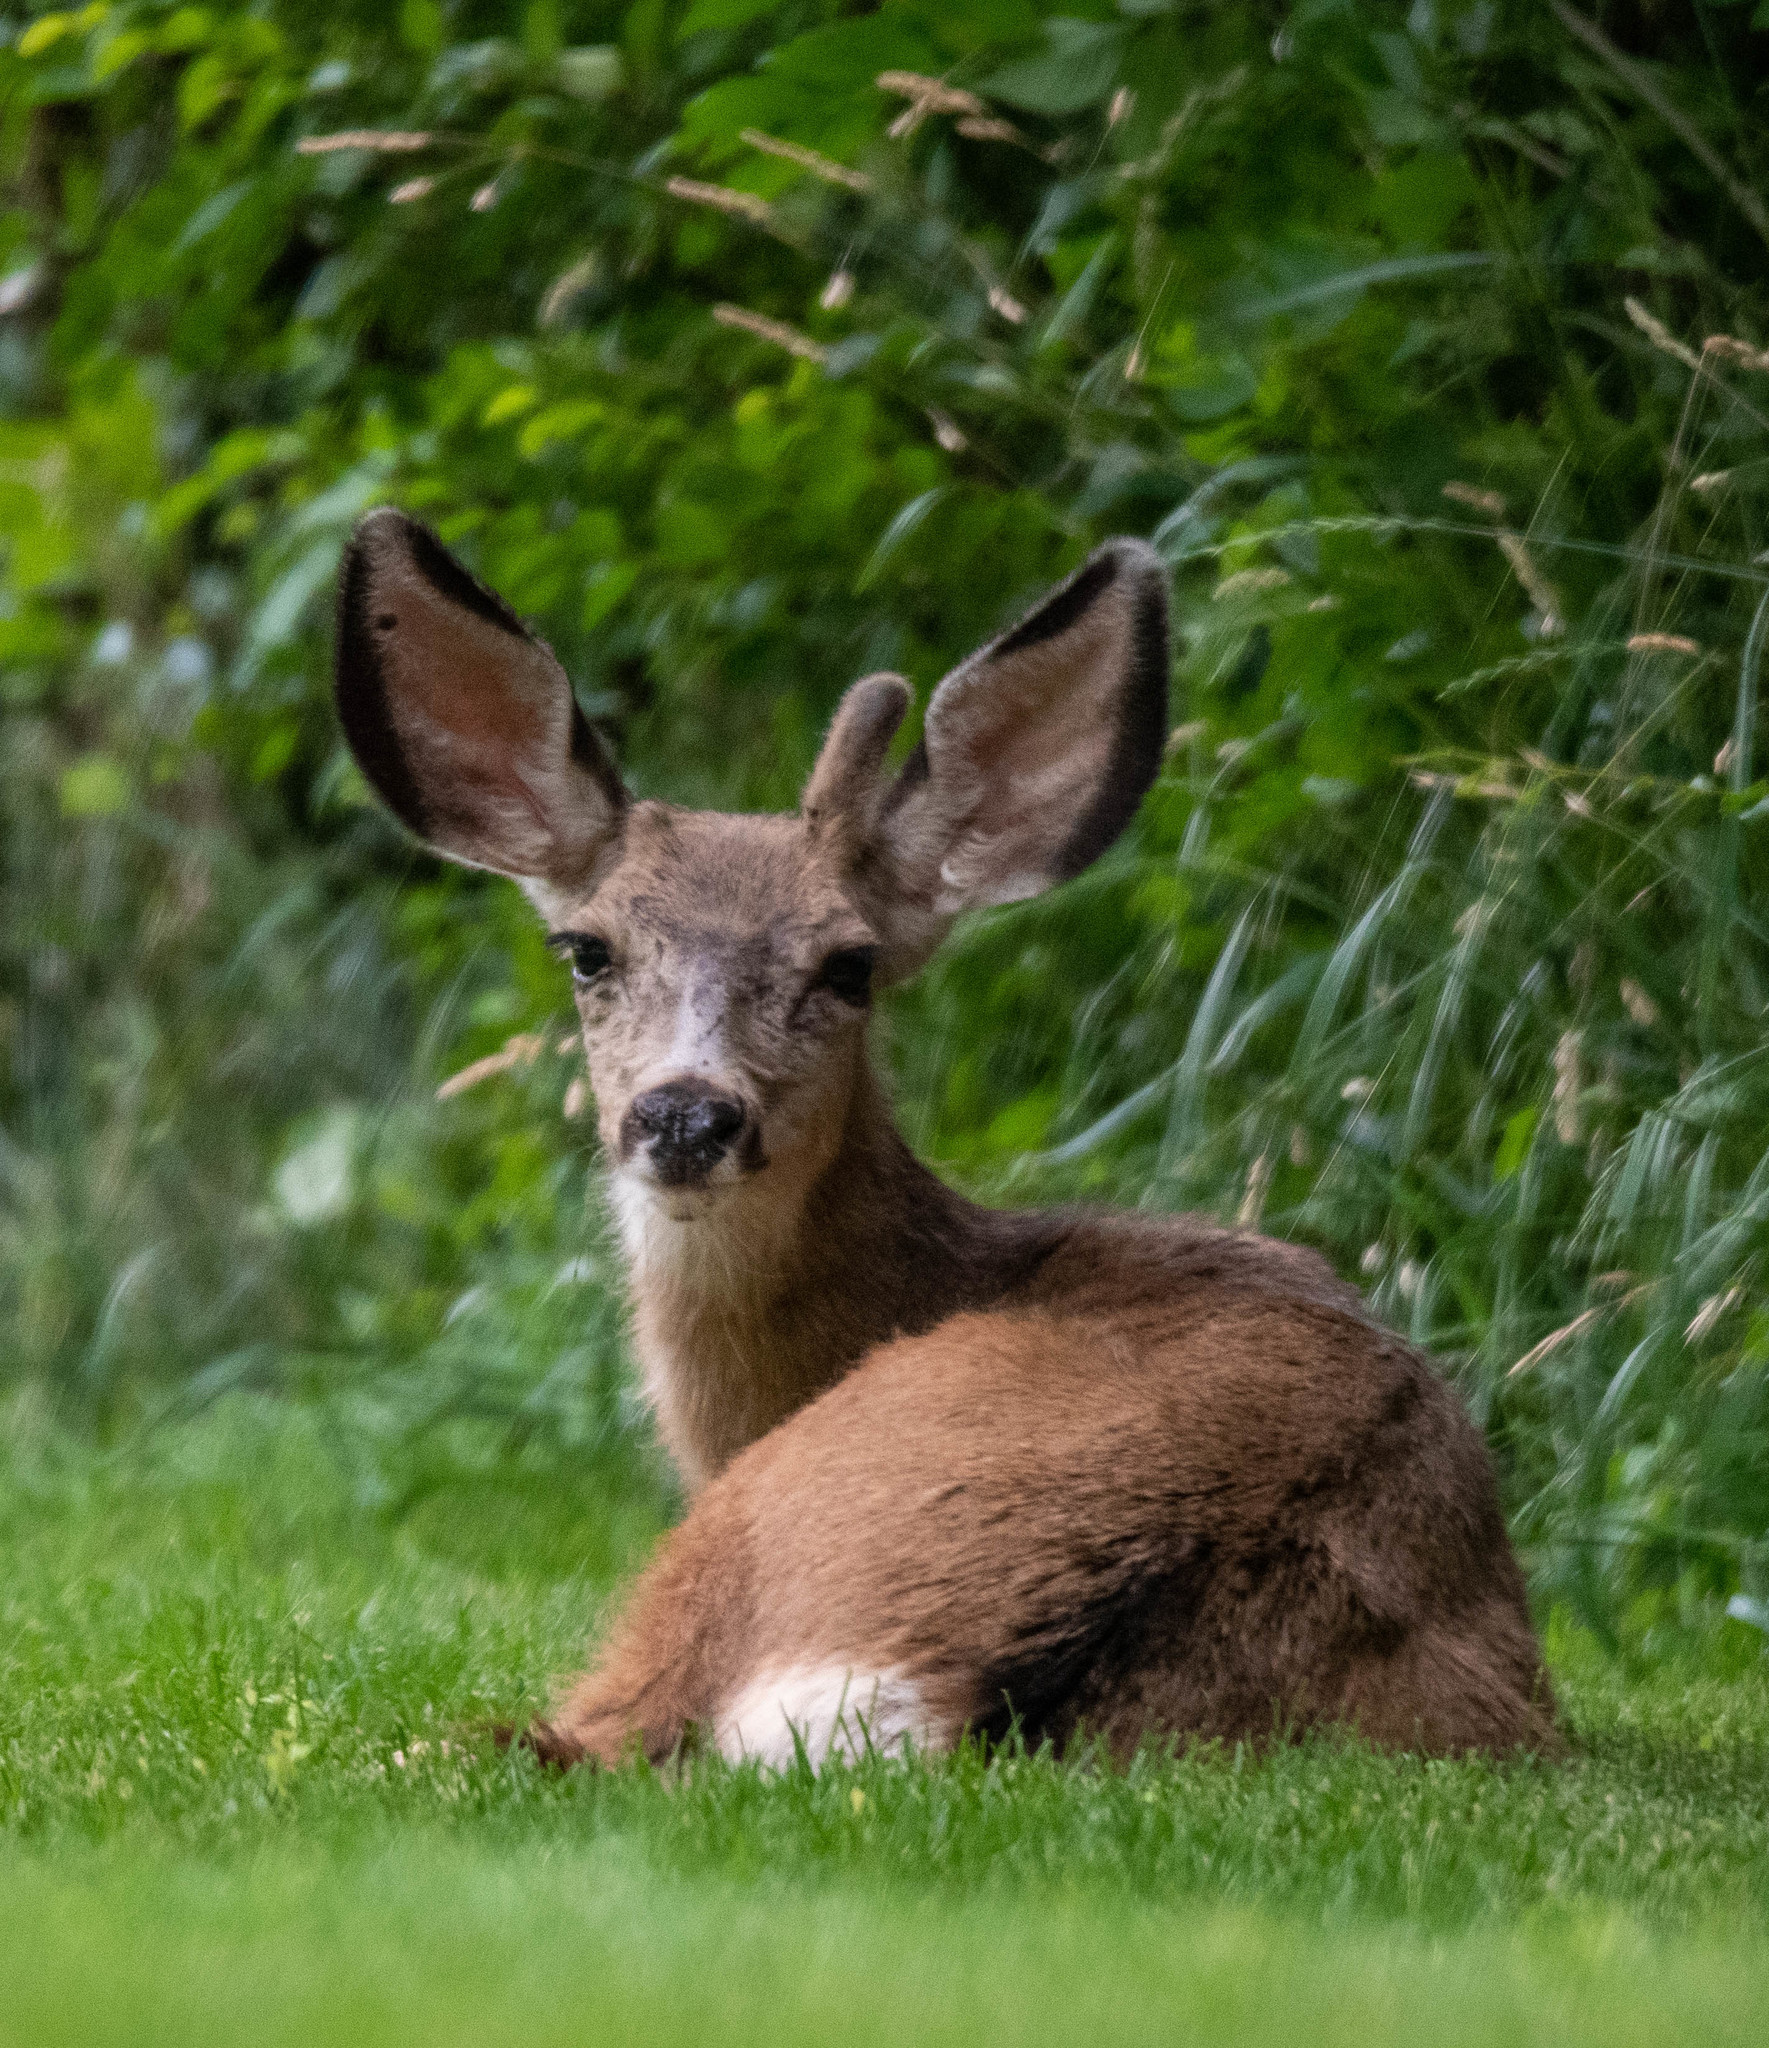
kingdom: Animalia
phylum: Chordata
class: Mammalia
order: Artiodactyla
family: Cervidae
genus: Odocoileus
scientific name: Odocoileus hemionus
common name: Mule deer
